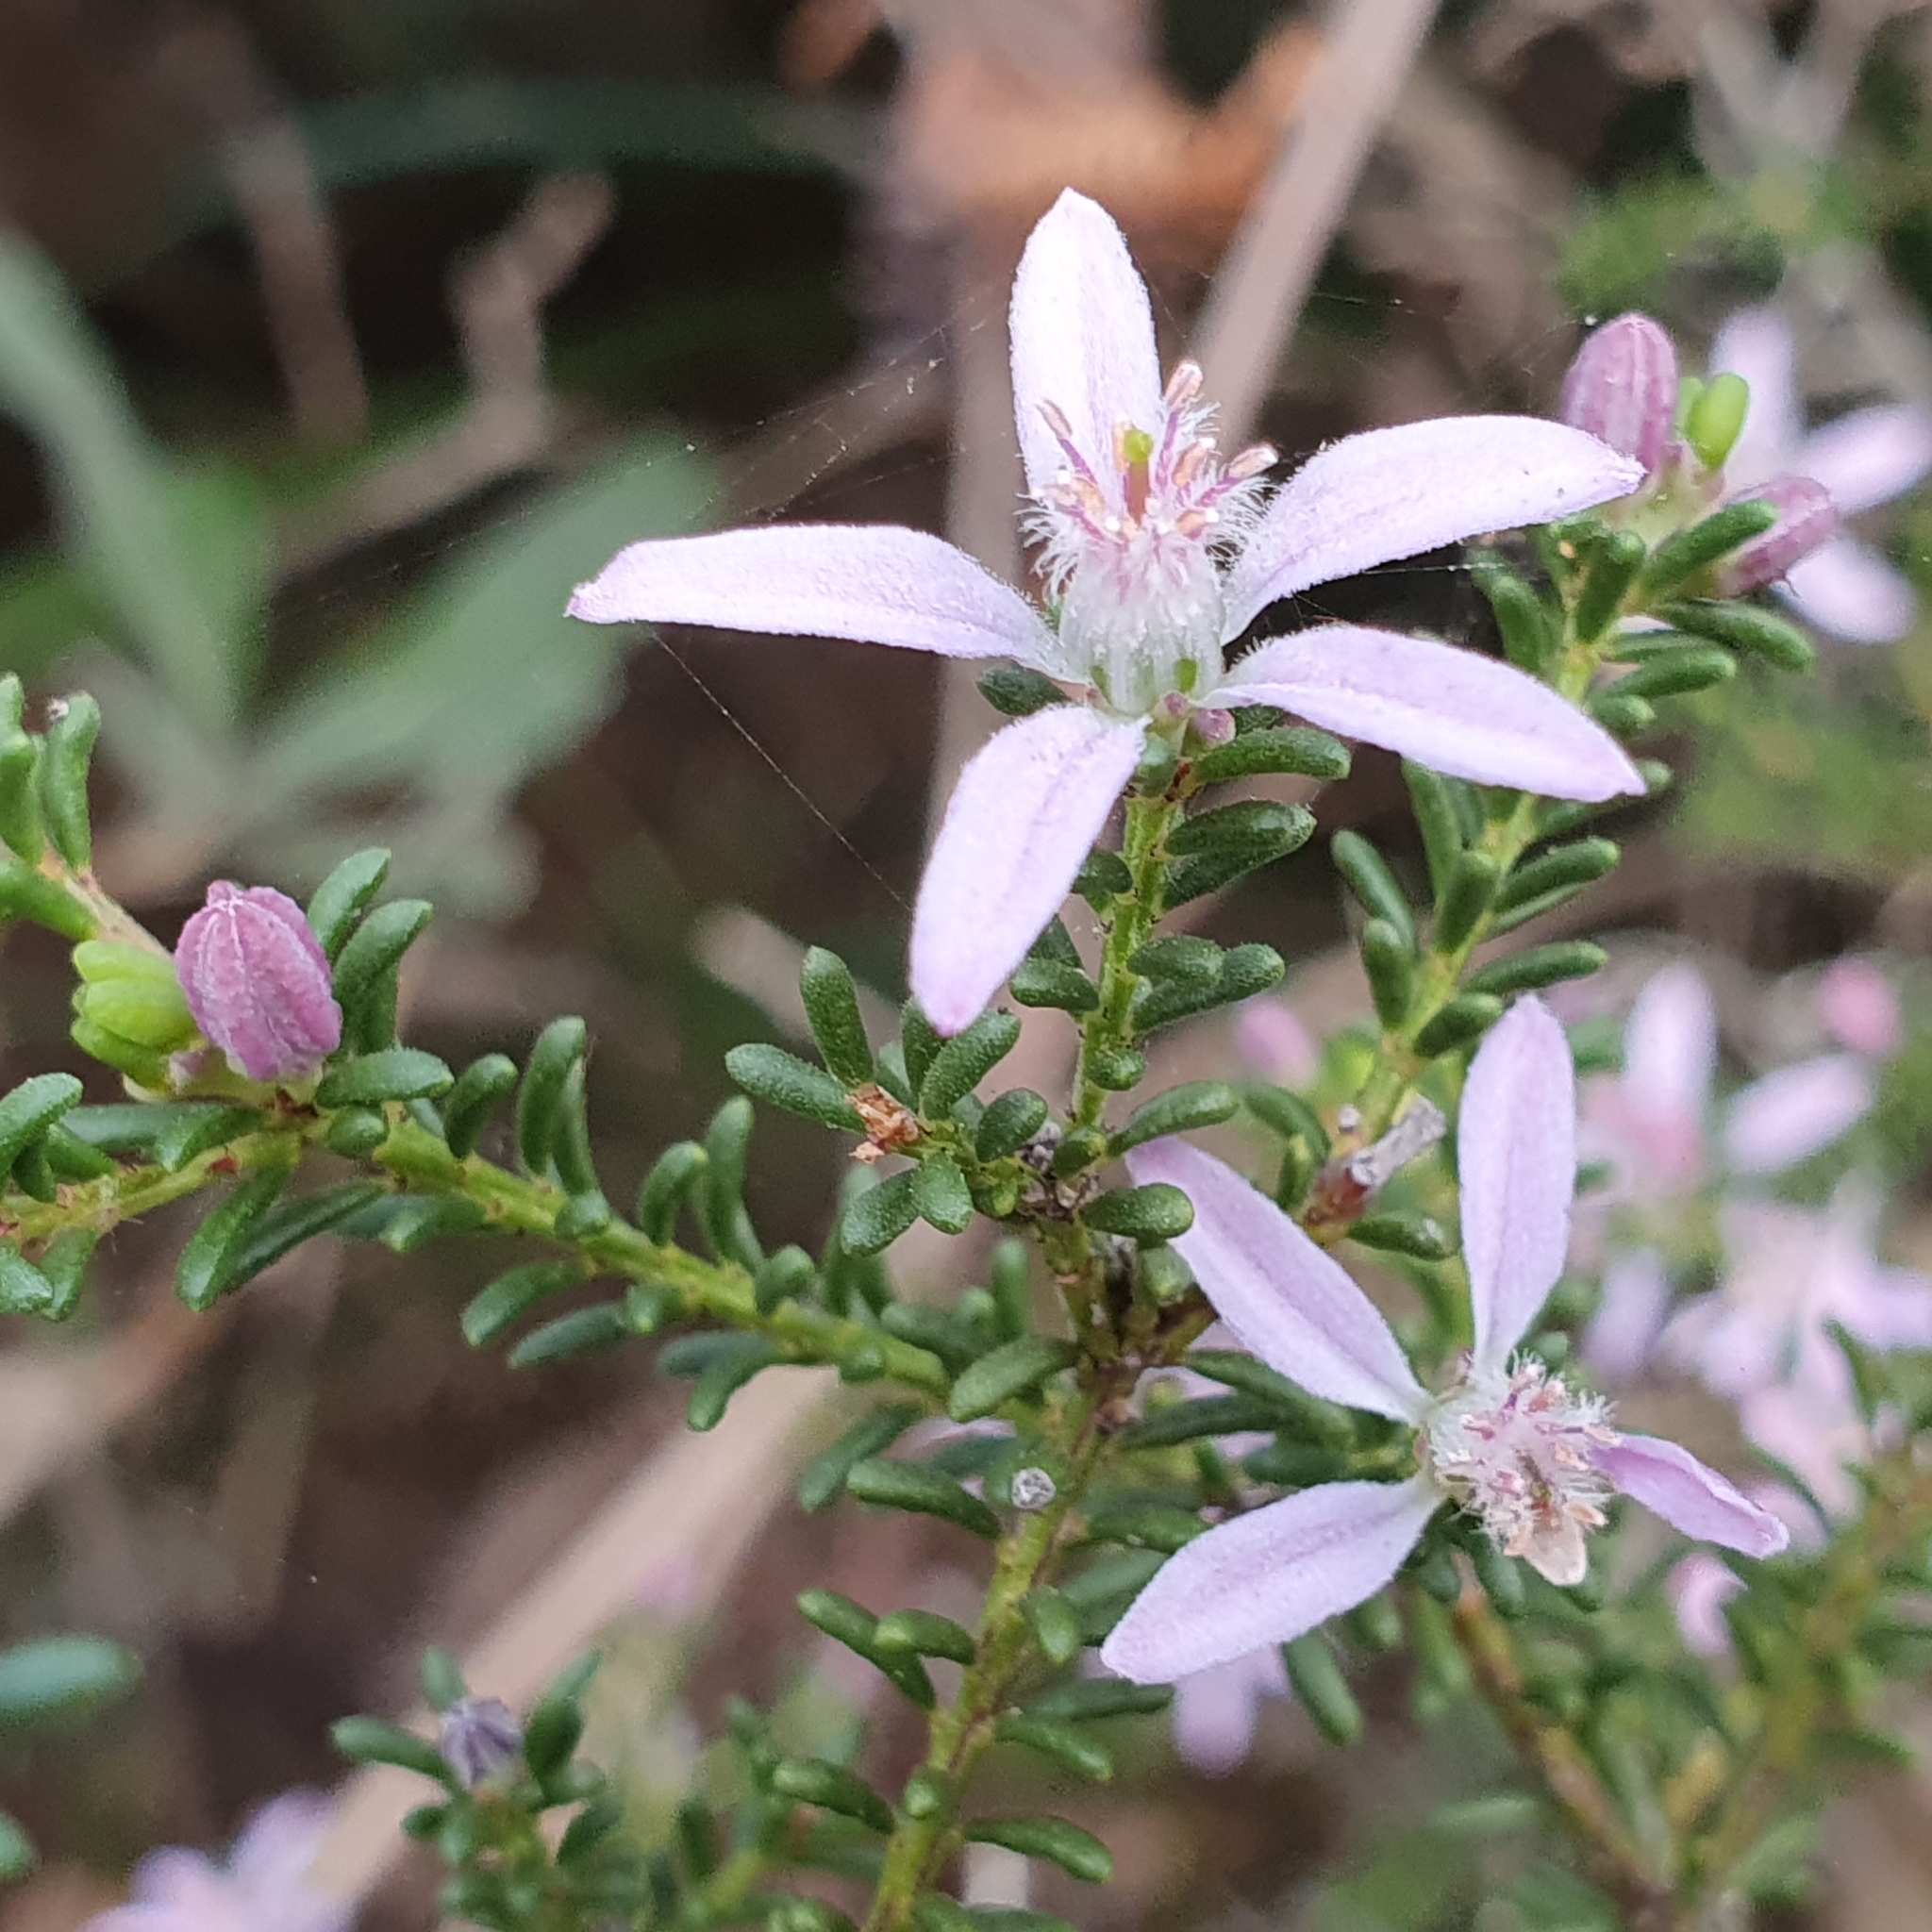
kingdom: Plantae
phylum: Tracheophyta
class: Magnoliopsida
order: Sapindales
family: Rutaceae
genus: Philotheca
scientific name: Philotheca salsolifolia
